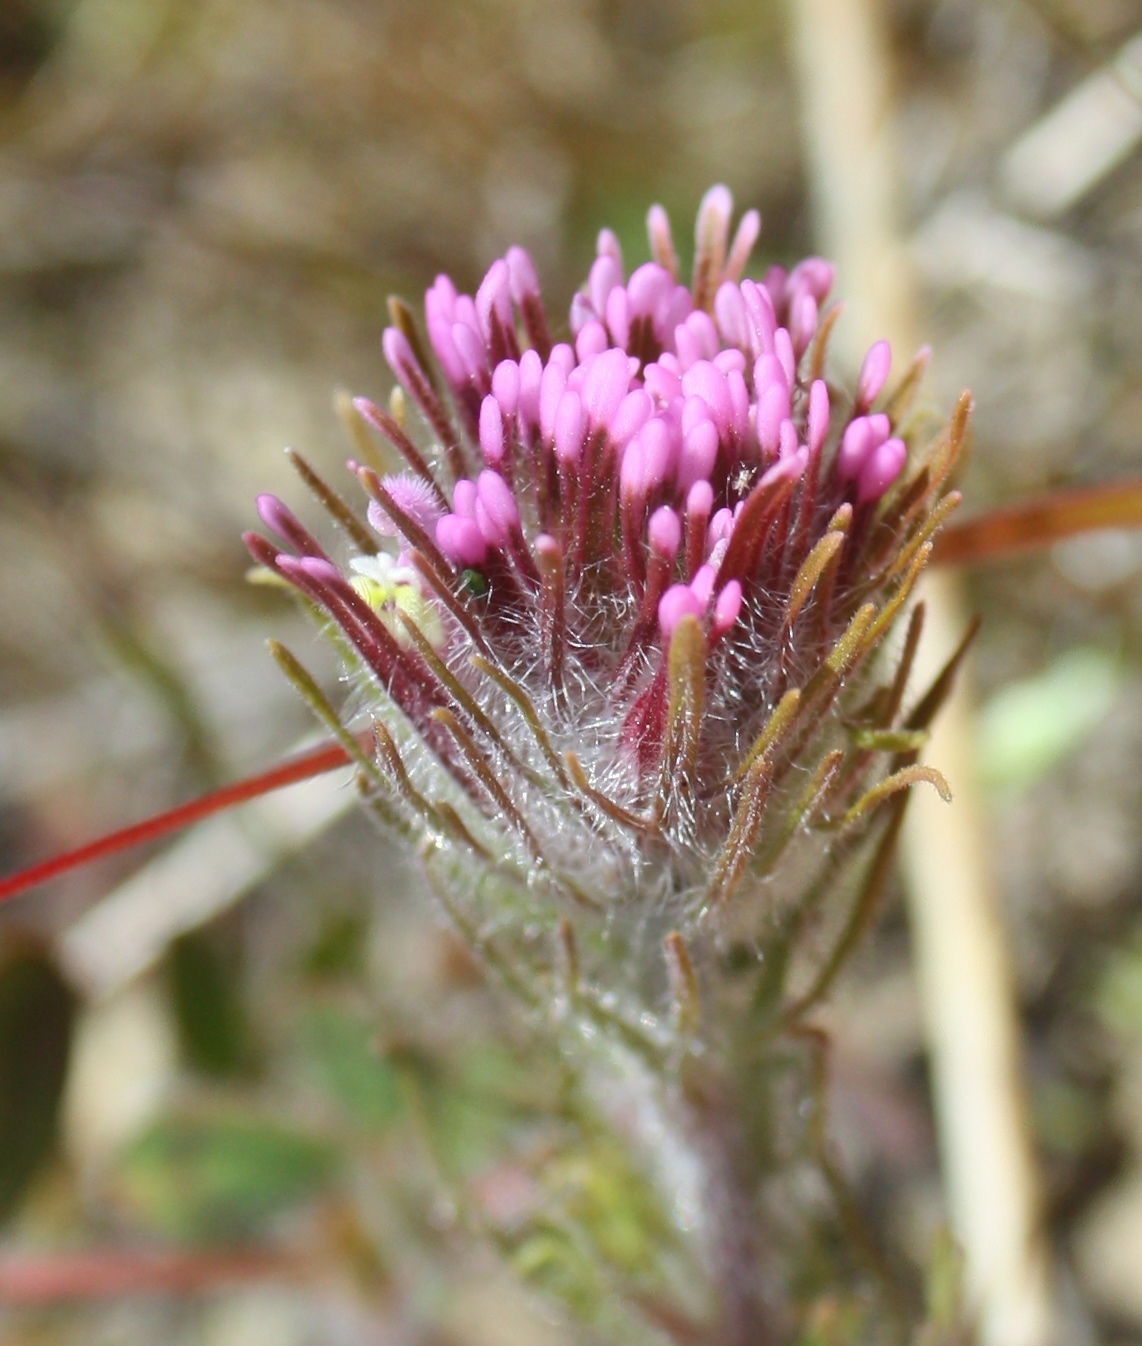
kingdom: Plantae
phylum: Tracheophyta
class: Magnoliopsida
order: Lamiales
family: Orobanchaceae
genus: Castilleja
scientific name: Castilleja exserta
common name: Purple owl-clover
